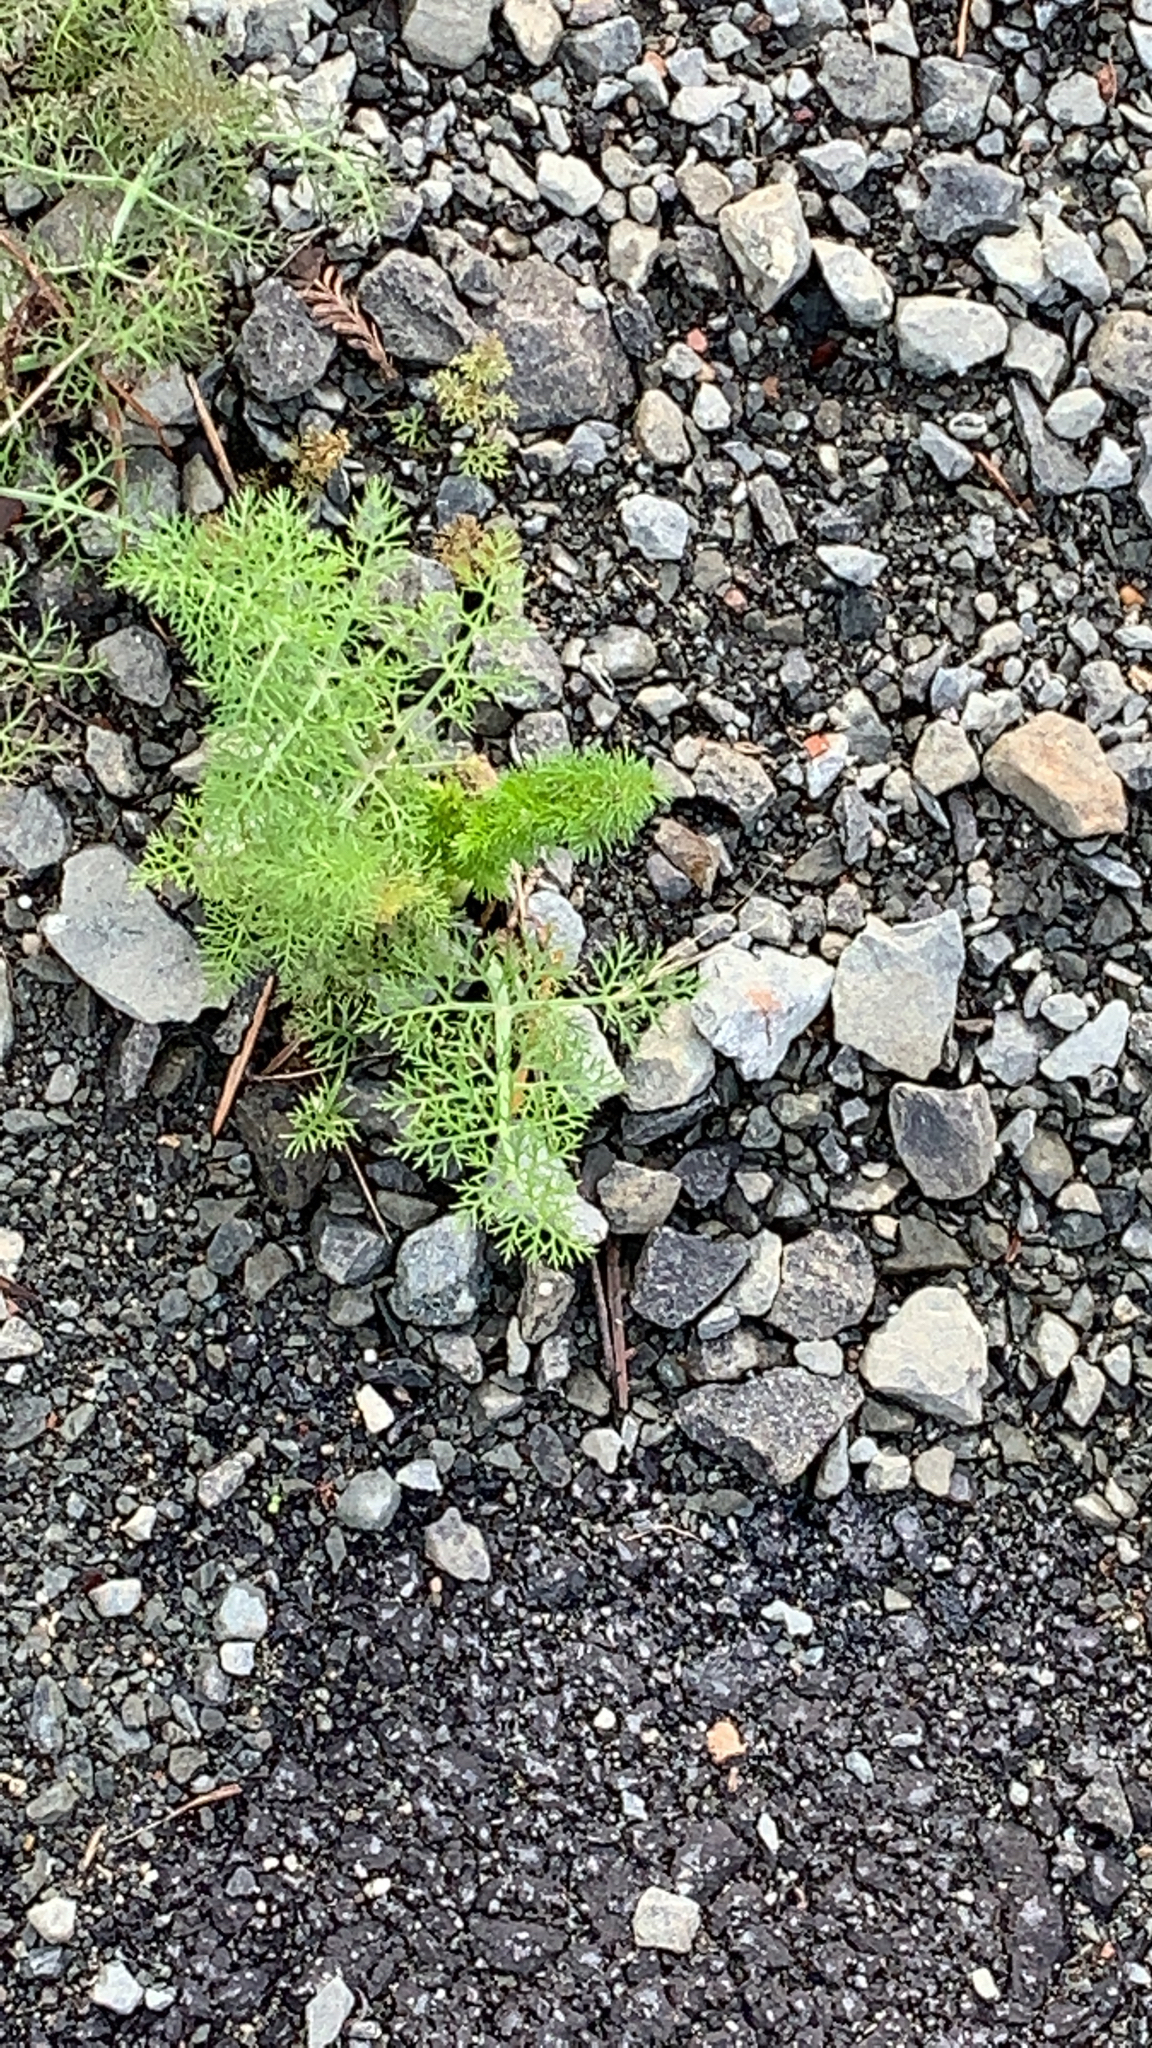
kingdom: Plantae
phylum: Tracheophyta
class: Magnoliopsida
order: Apiales
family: Apiaceae
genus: Foeniculum
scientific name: Foeniculum vulgare
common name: Fennel
